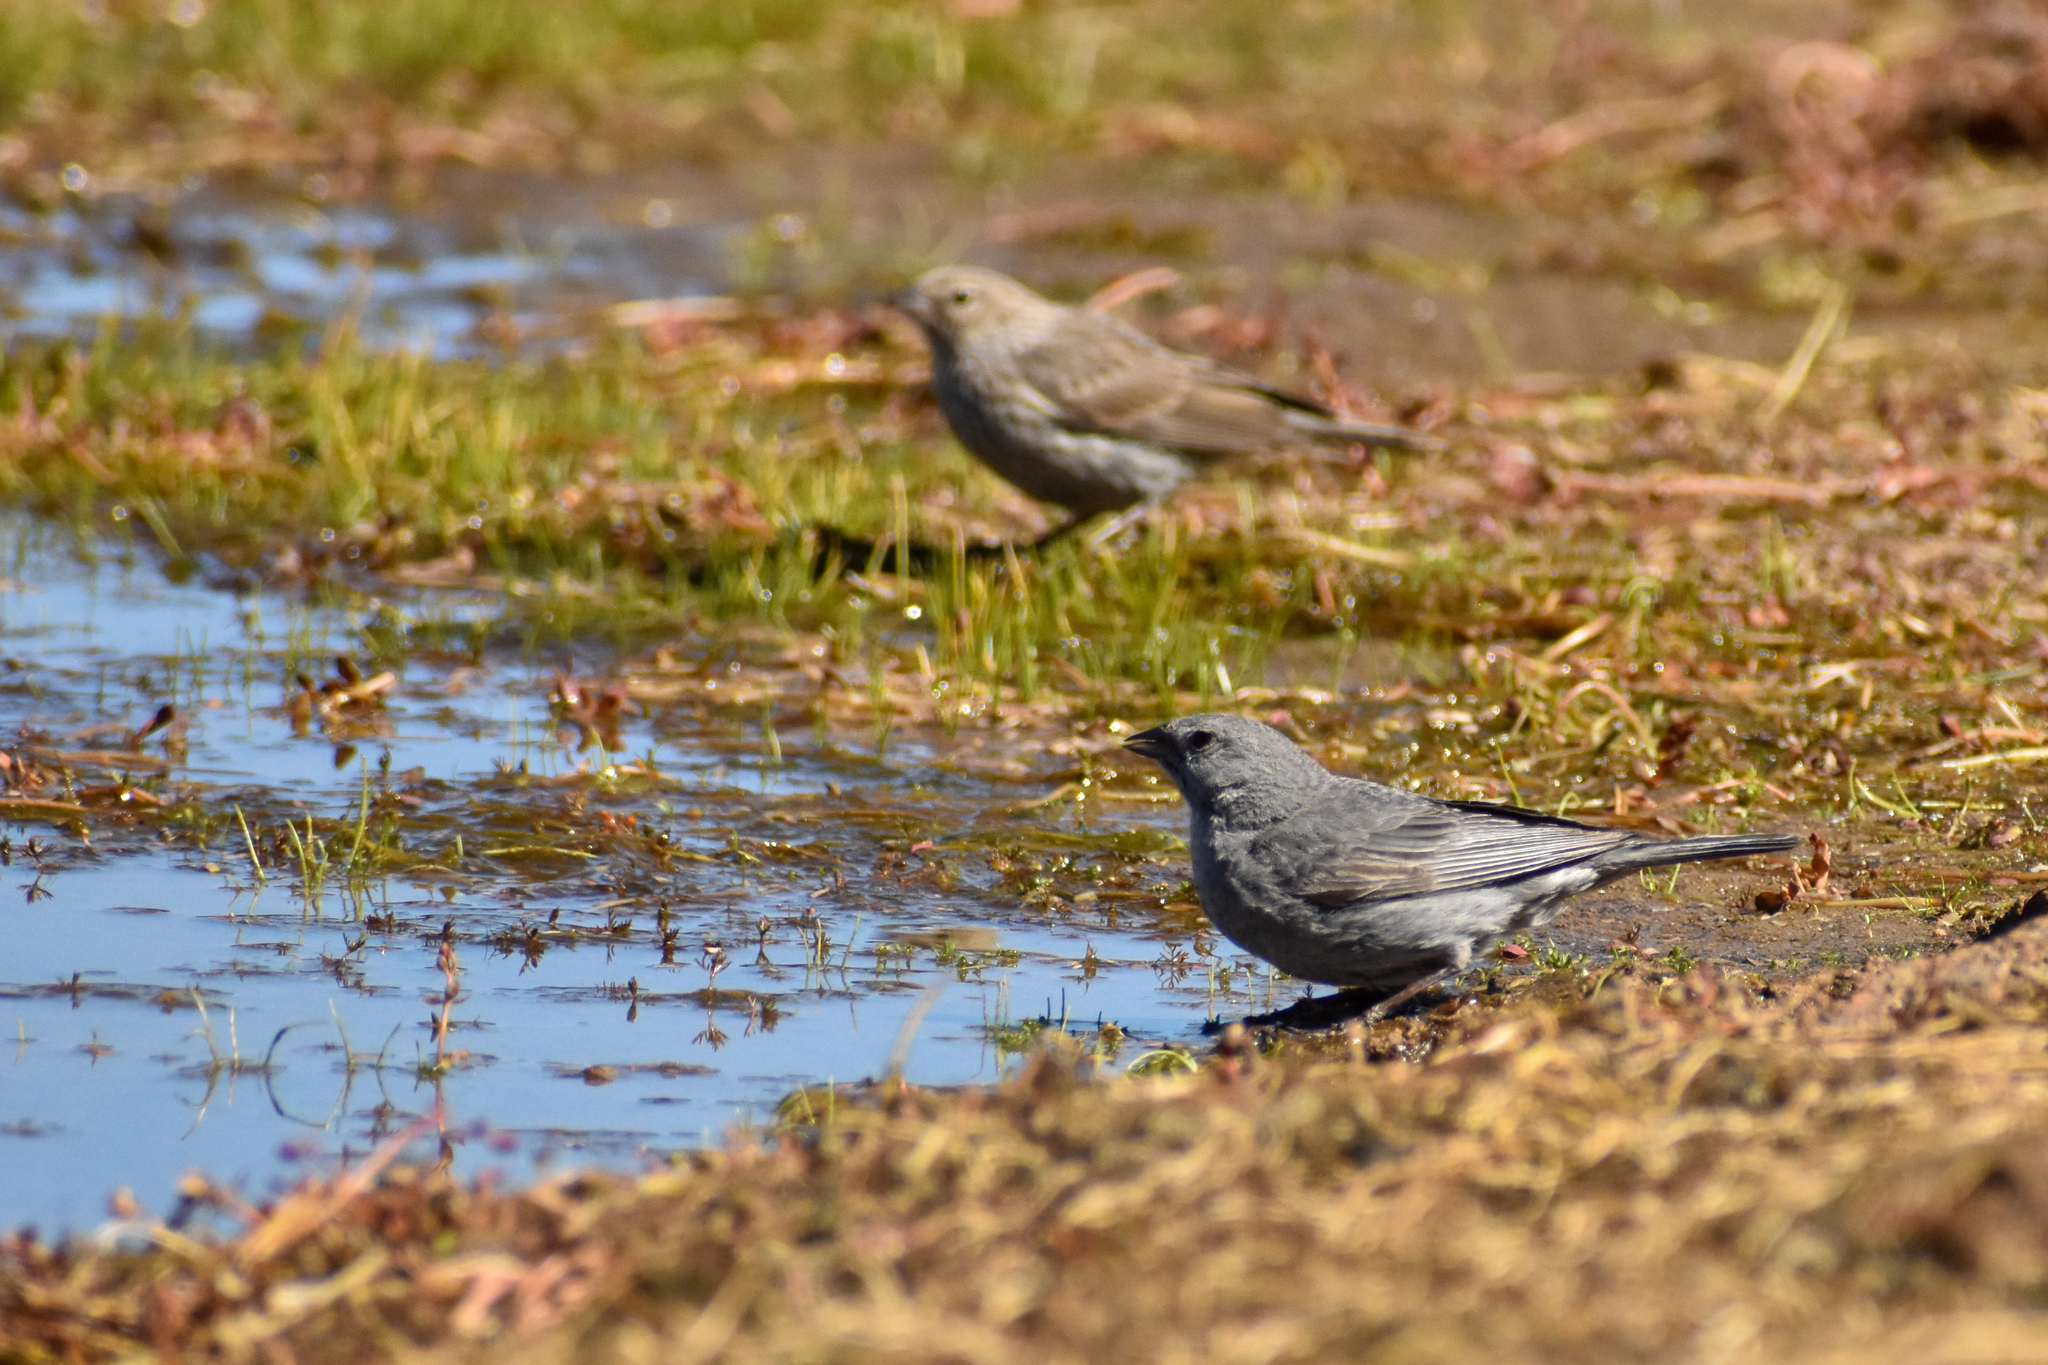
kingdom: Animalia
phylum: Chordata
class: Aves
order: Passeriformes
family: Thraupidae
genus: Geospizopsis
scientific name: Geospizopsis unicolor
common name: Plumbeous sierra-finch
